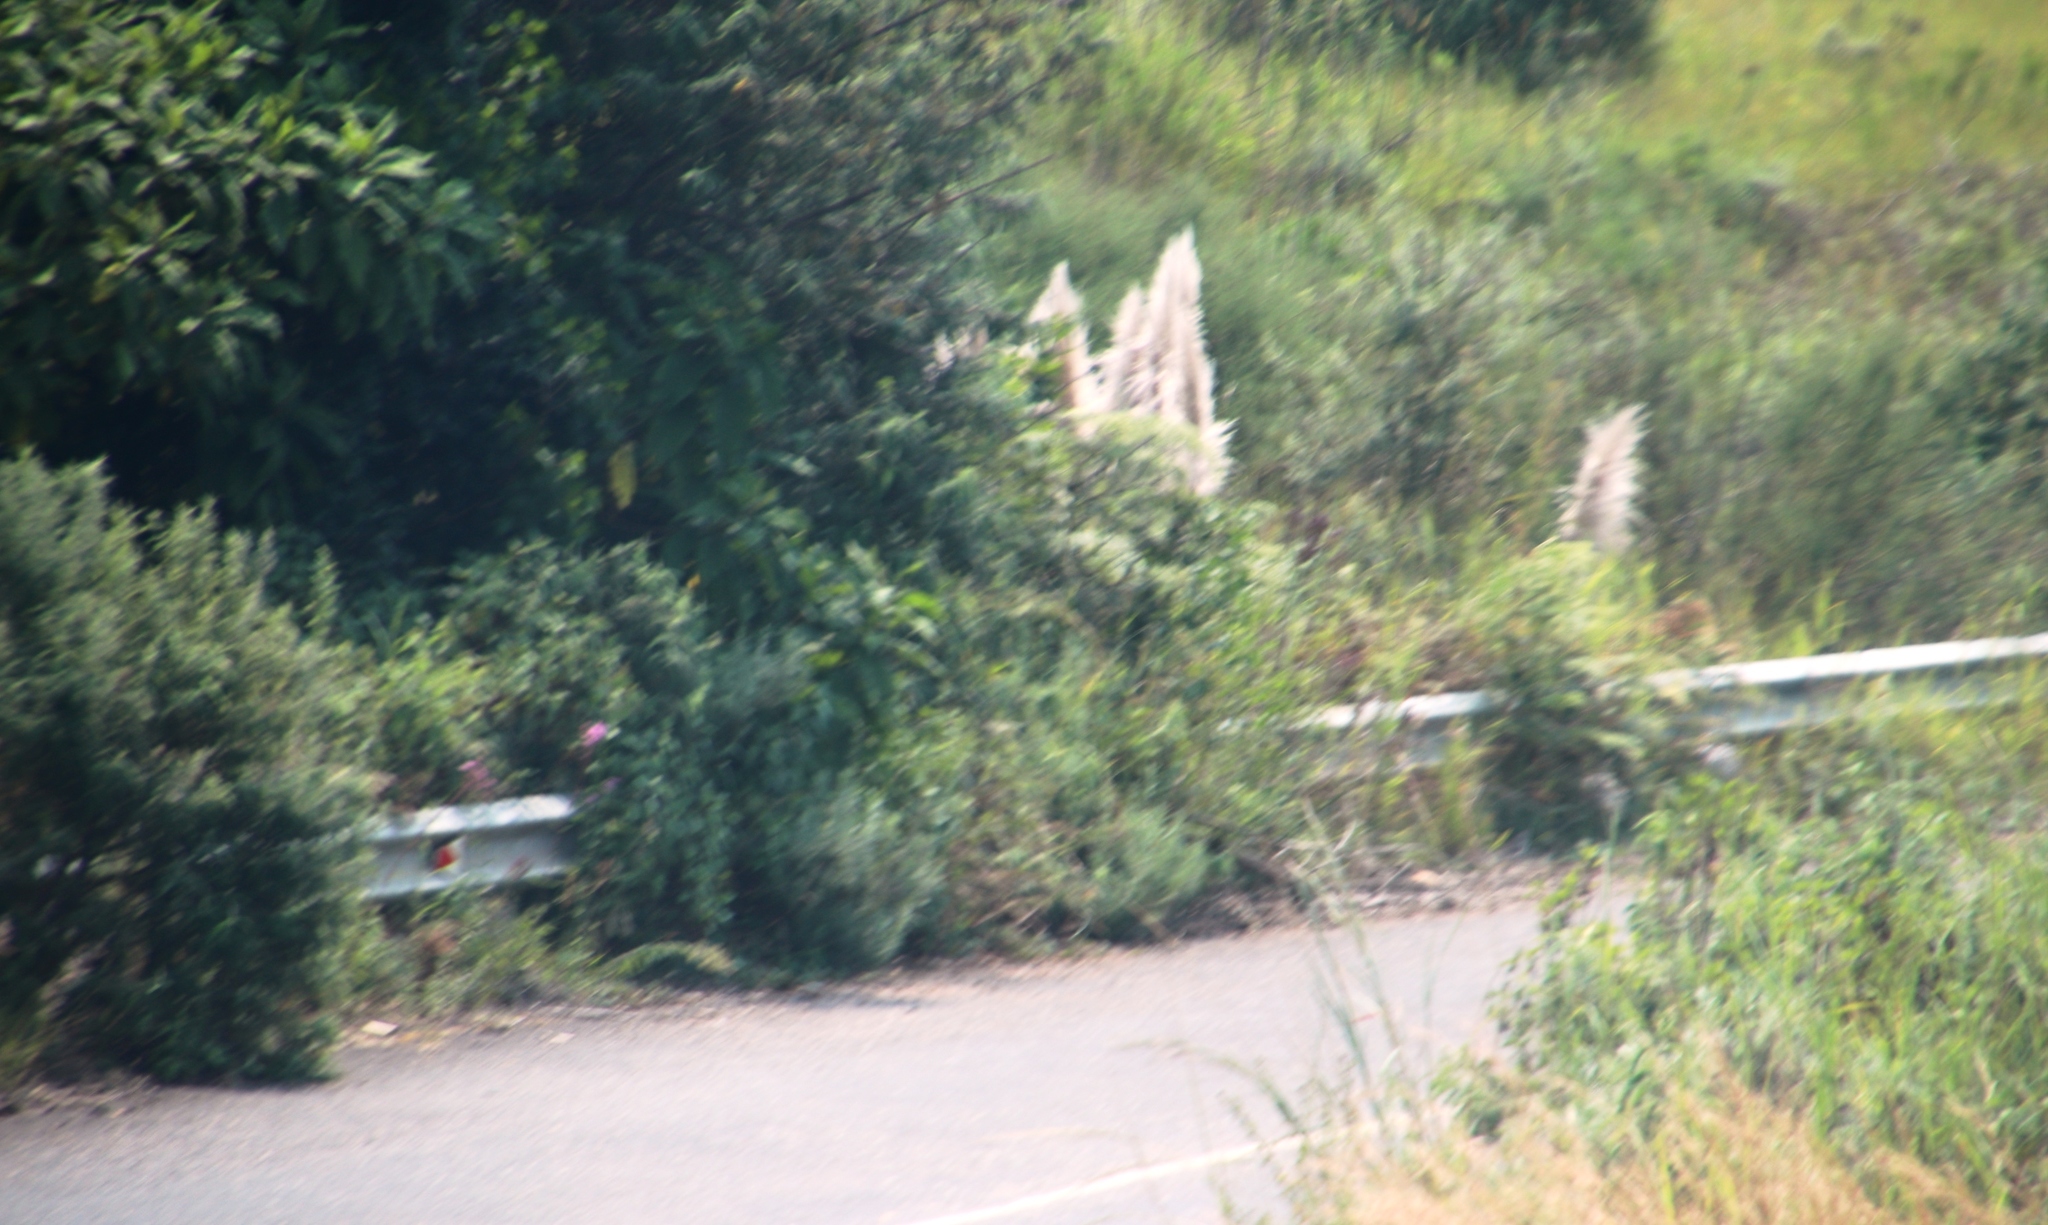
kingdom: Plantae
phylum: Tracheophyta
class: Liliopsida
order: Poales
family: Poaceae
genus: Cortaderia
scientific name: Cortaderia selloana
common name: Uruguayan pampas grass
